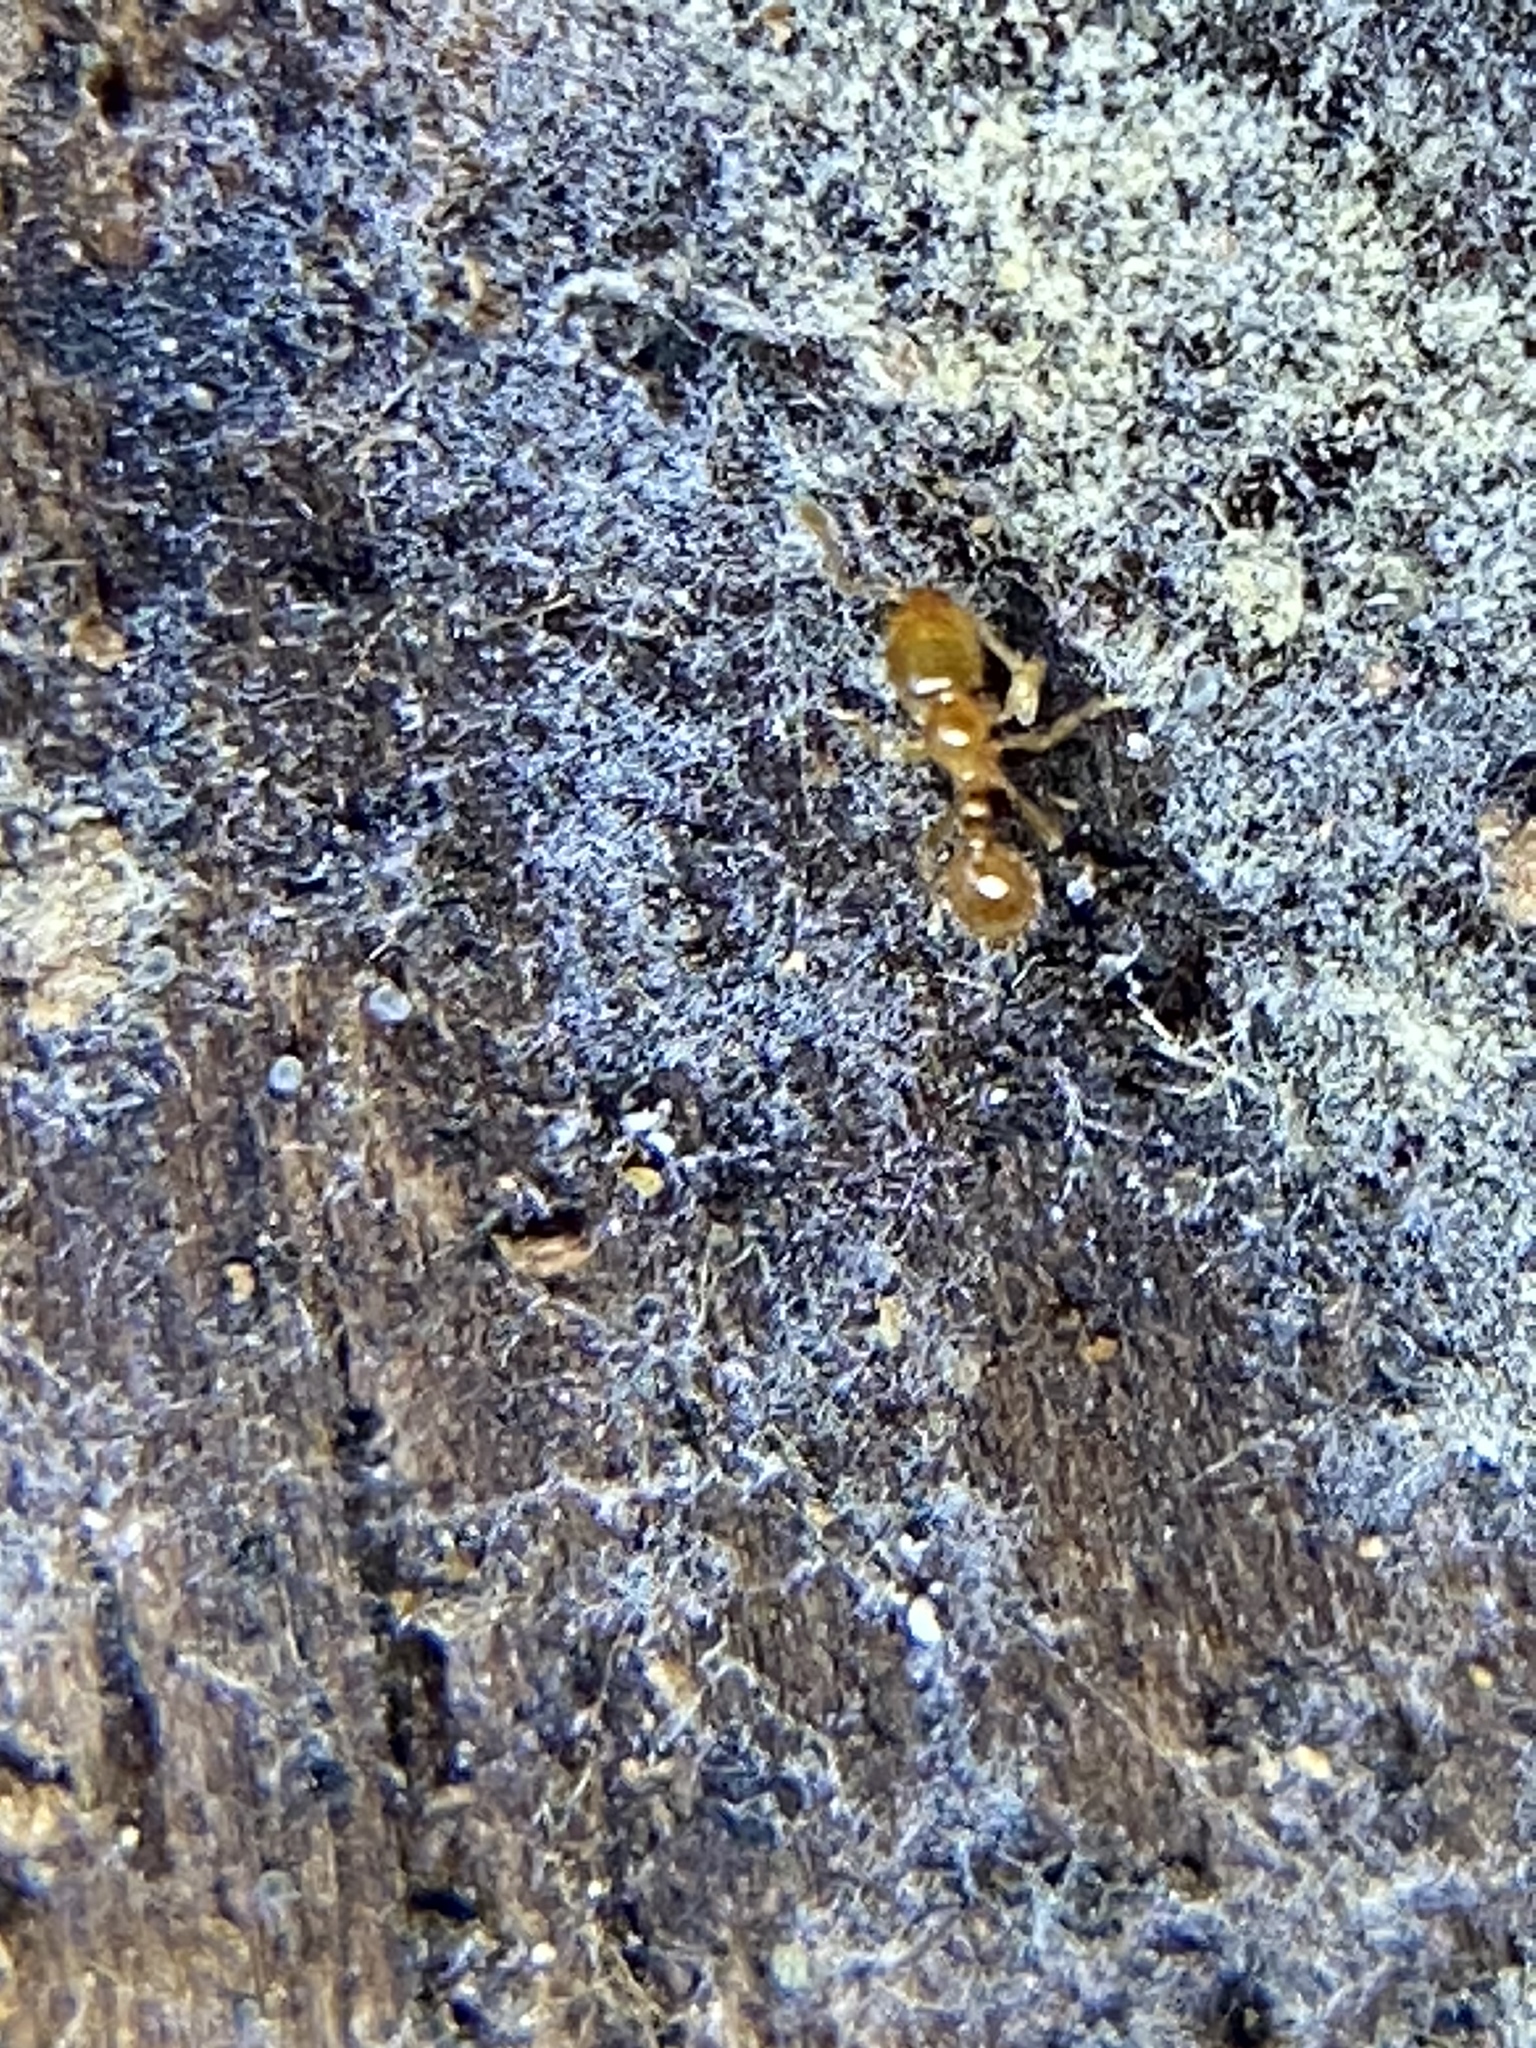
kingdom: Animalia
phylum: Arthropoda
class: Insecta
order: Hymenoptera
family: Formicidae
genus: Solenopsis
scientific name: Solenopsis molesta
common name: Thief ant
